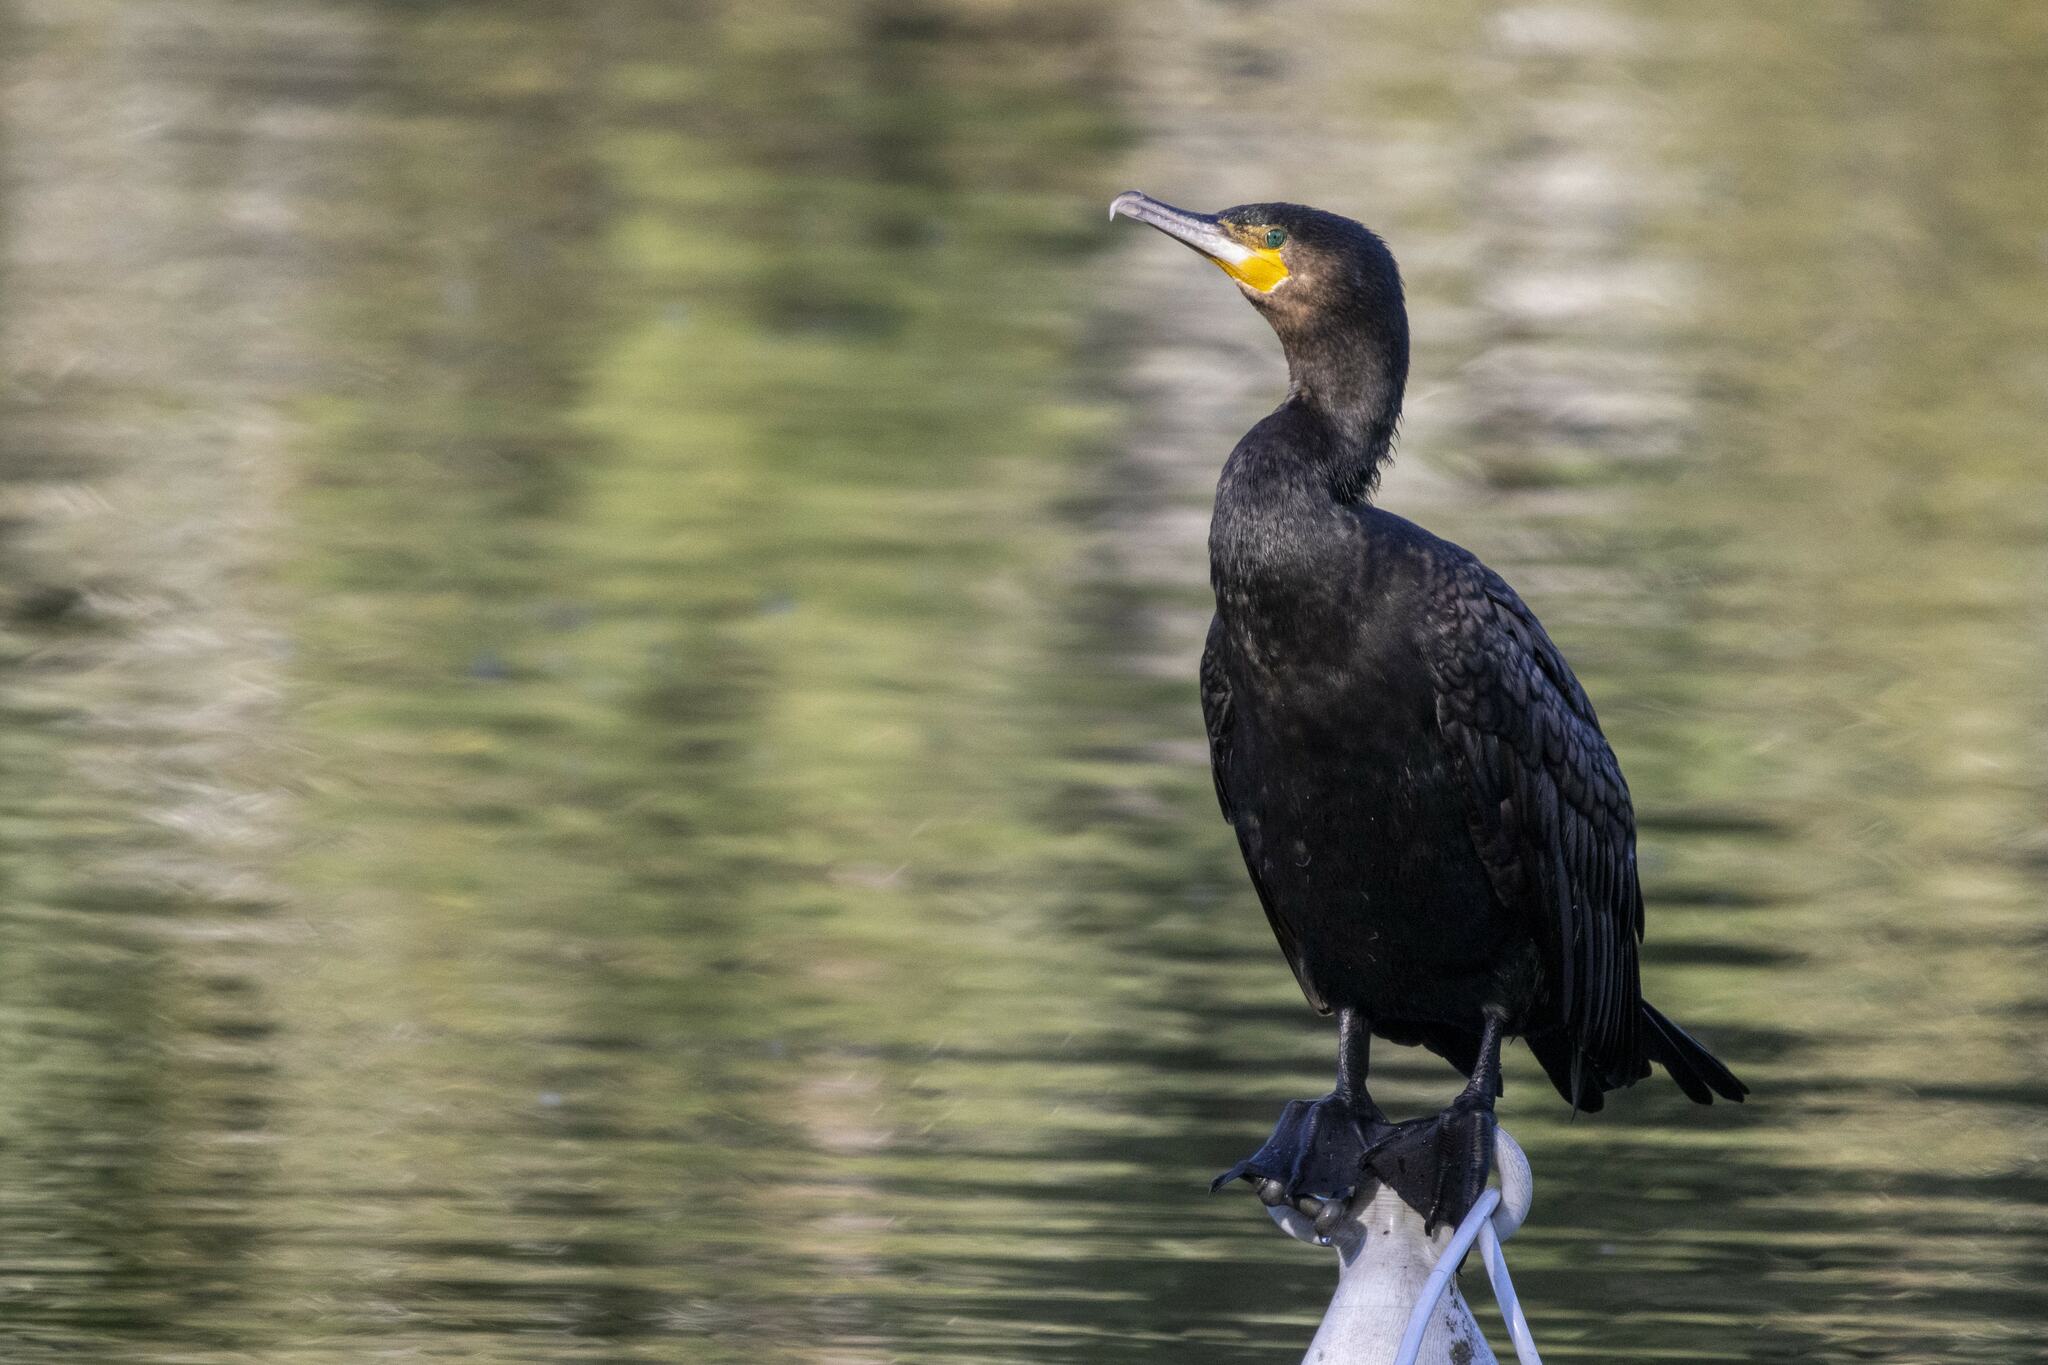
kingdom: Animalia
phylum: Chordata
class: Aves
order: Suliformes
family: Phalacrocoracidae
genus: Phalacrocorax
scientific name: Phalacrocorax carbo
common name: Great cormorant
